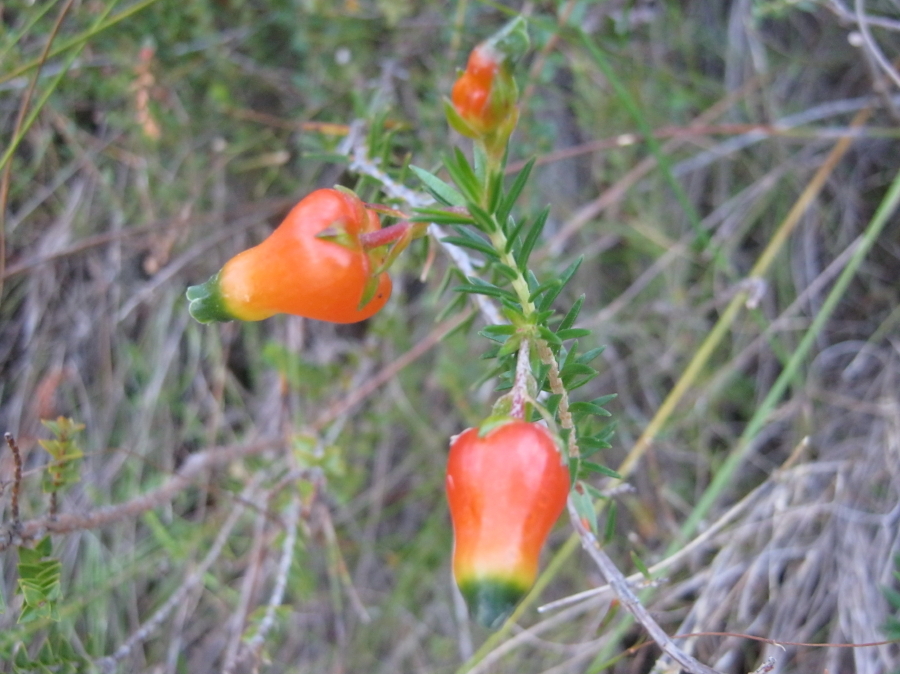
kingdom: Plantae
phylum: Tracheophyta
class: Magnoliopsida
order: Ericales
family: Ericaceae
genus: Erica
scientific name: Erica blenna
